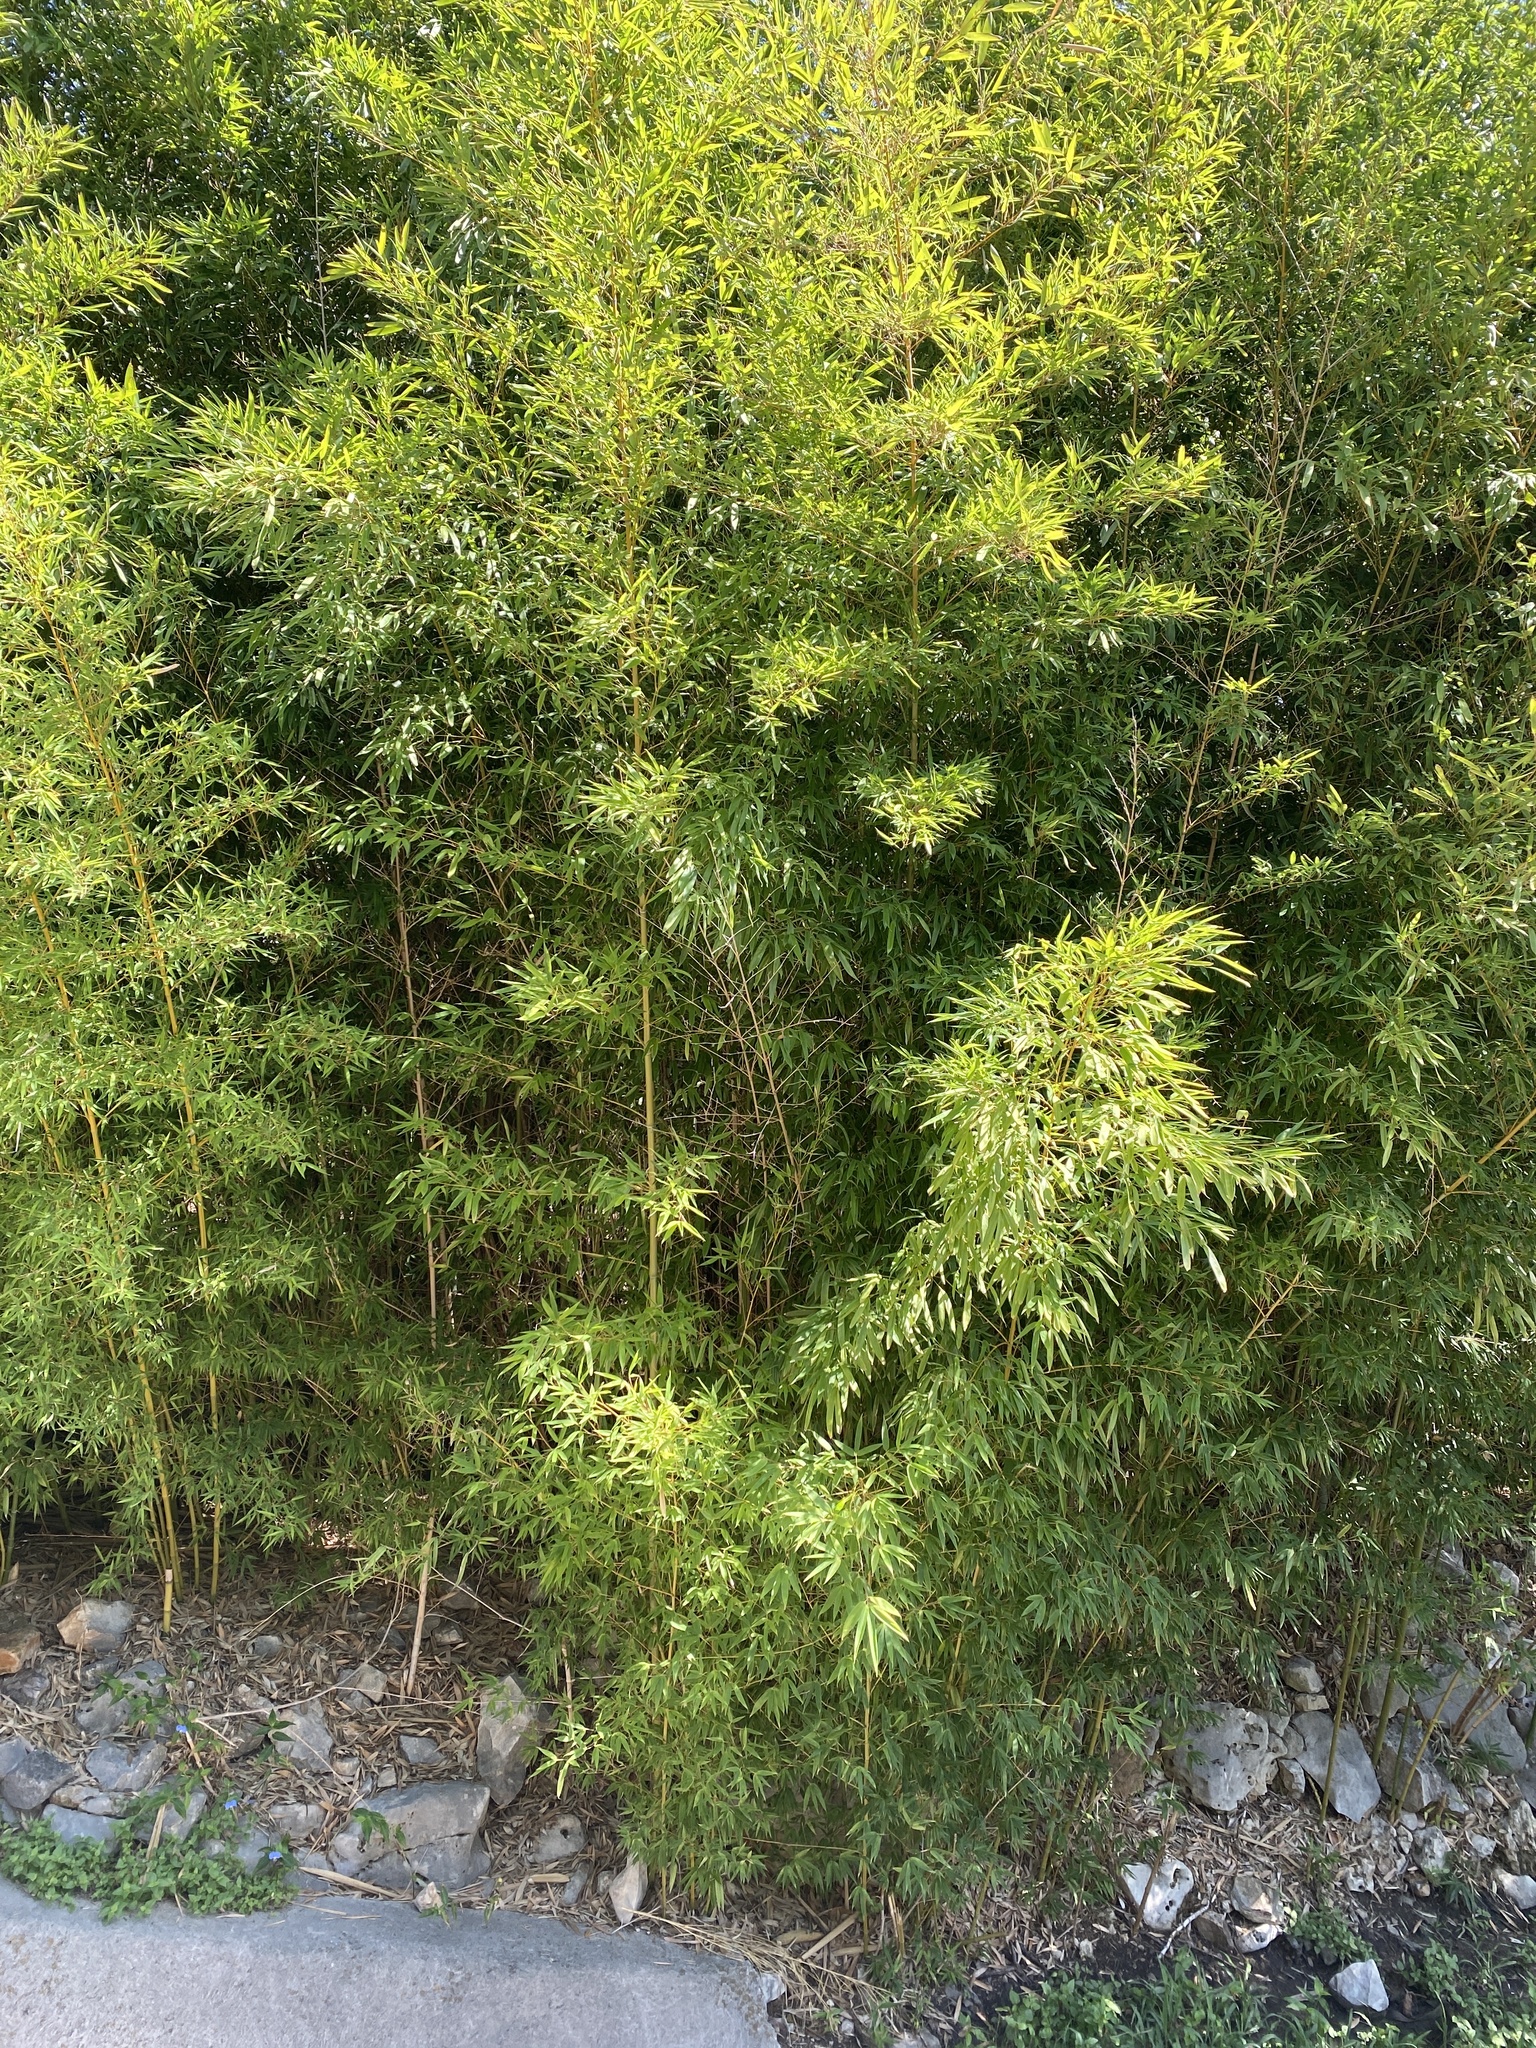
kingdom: Plantae
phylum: Tracheophyta
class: Liliopsida
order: Poales
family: Poaceae
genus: Phyllostachys
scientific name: Phyllostachys aurea
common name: Golden bamboo
